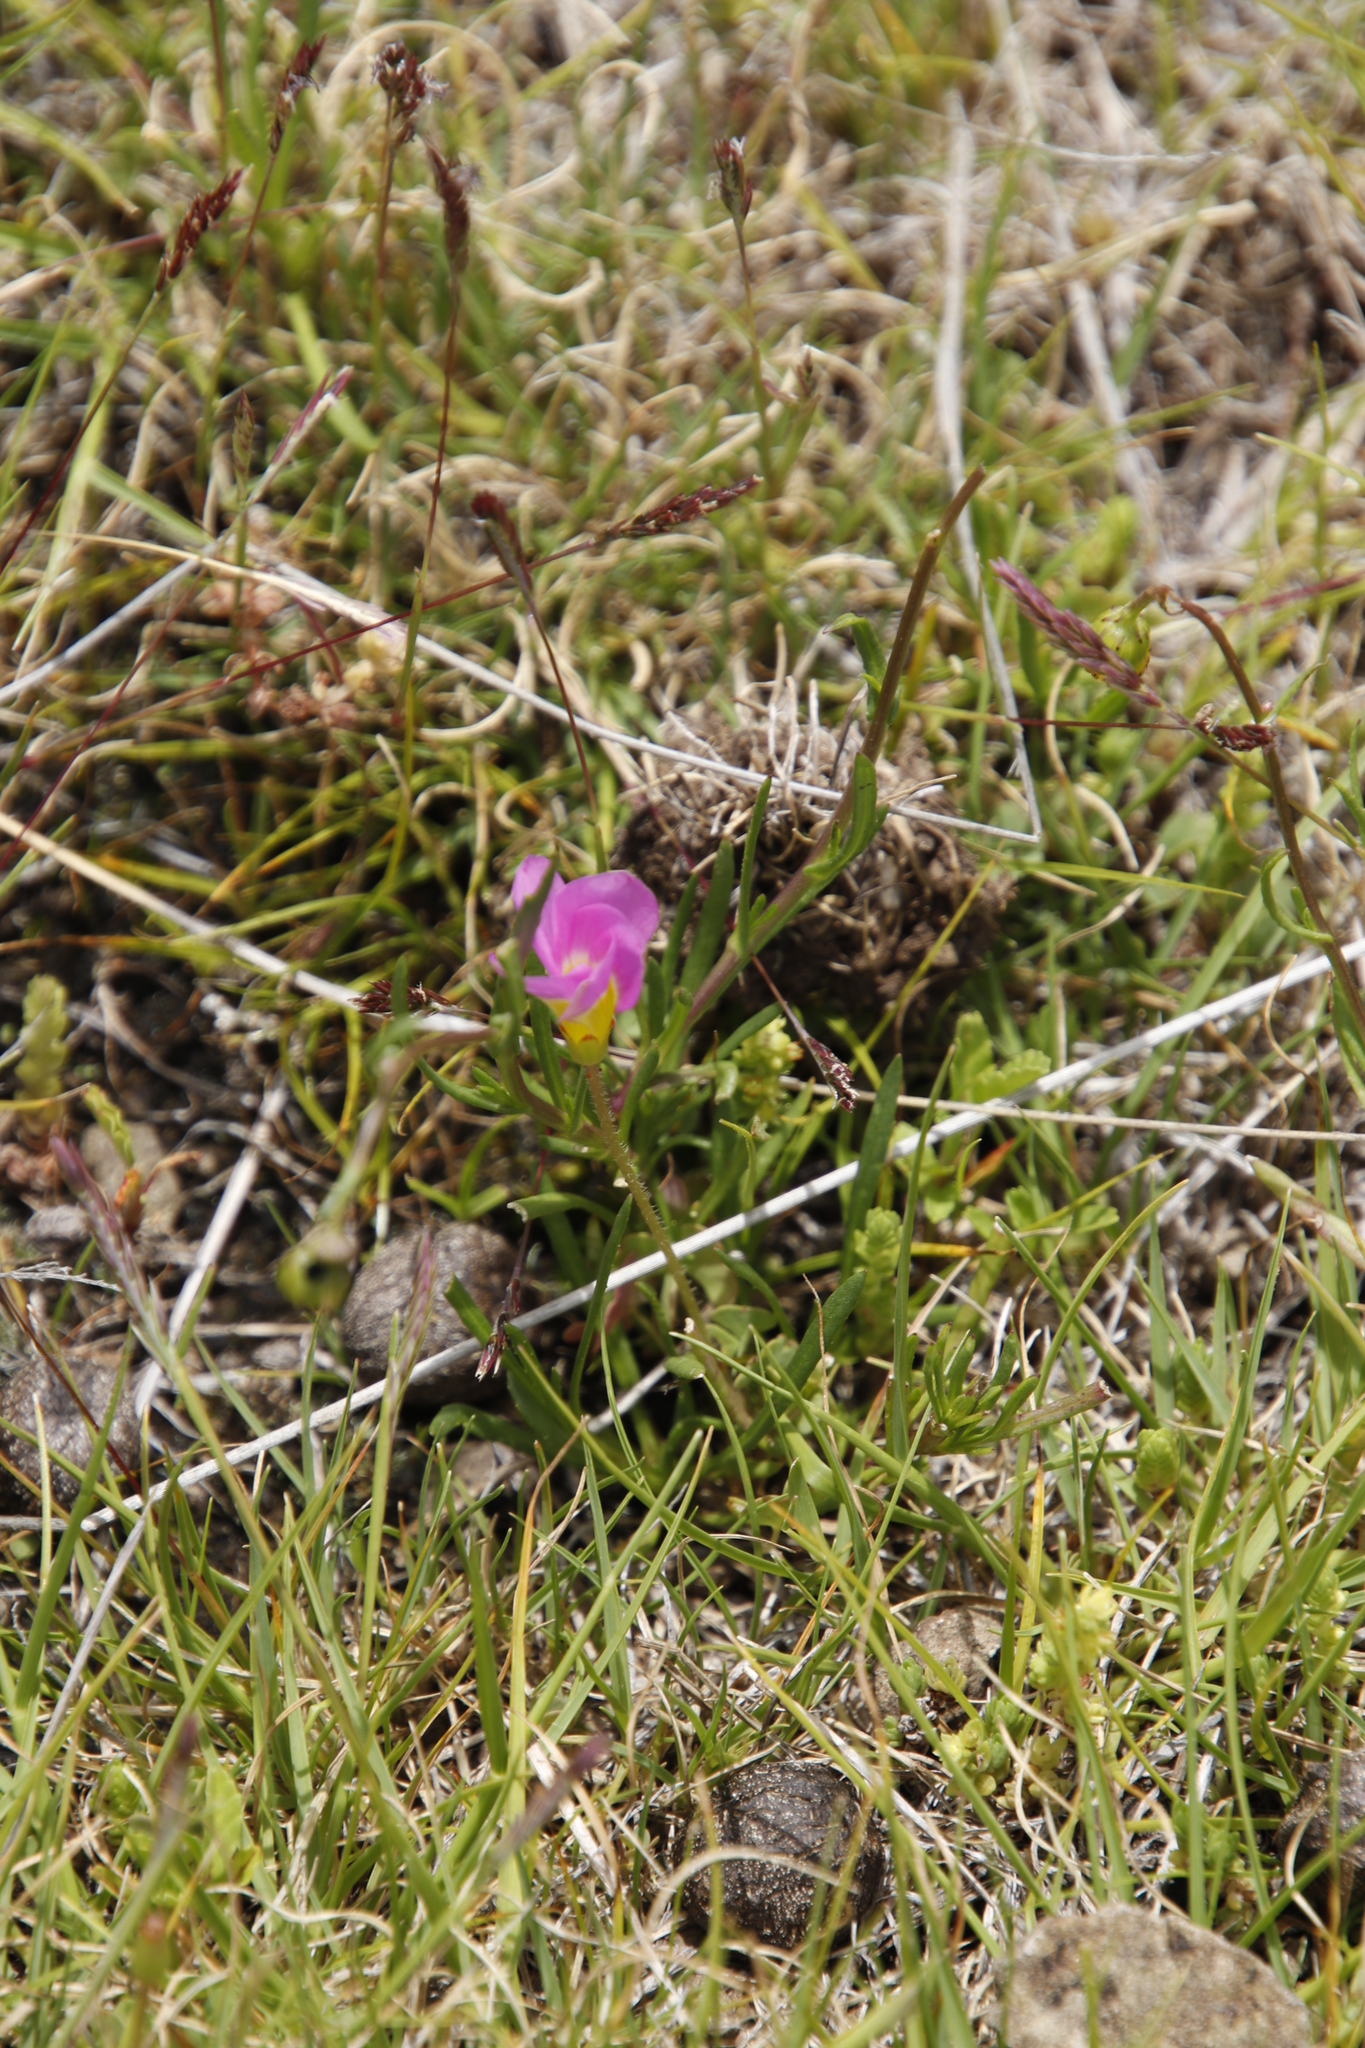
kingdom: Plantae
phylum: Tracheophyta
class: Magnoliopsida
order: Oxalidales
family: Oxalidaceae
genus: Oxalis
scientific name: Oxalis obliquifolia
